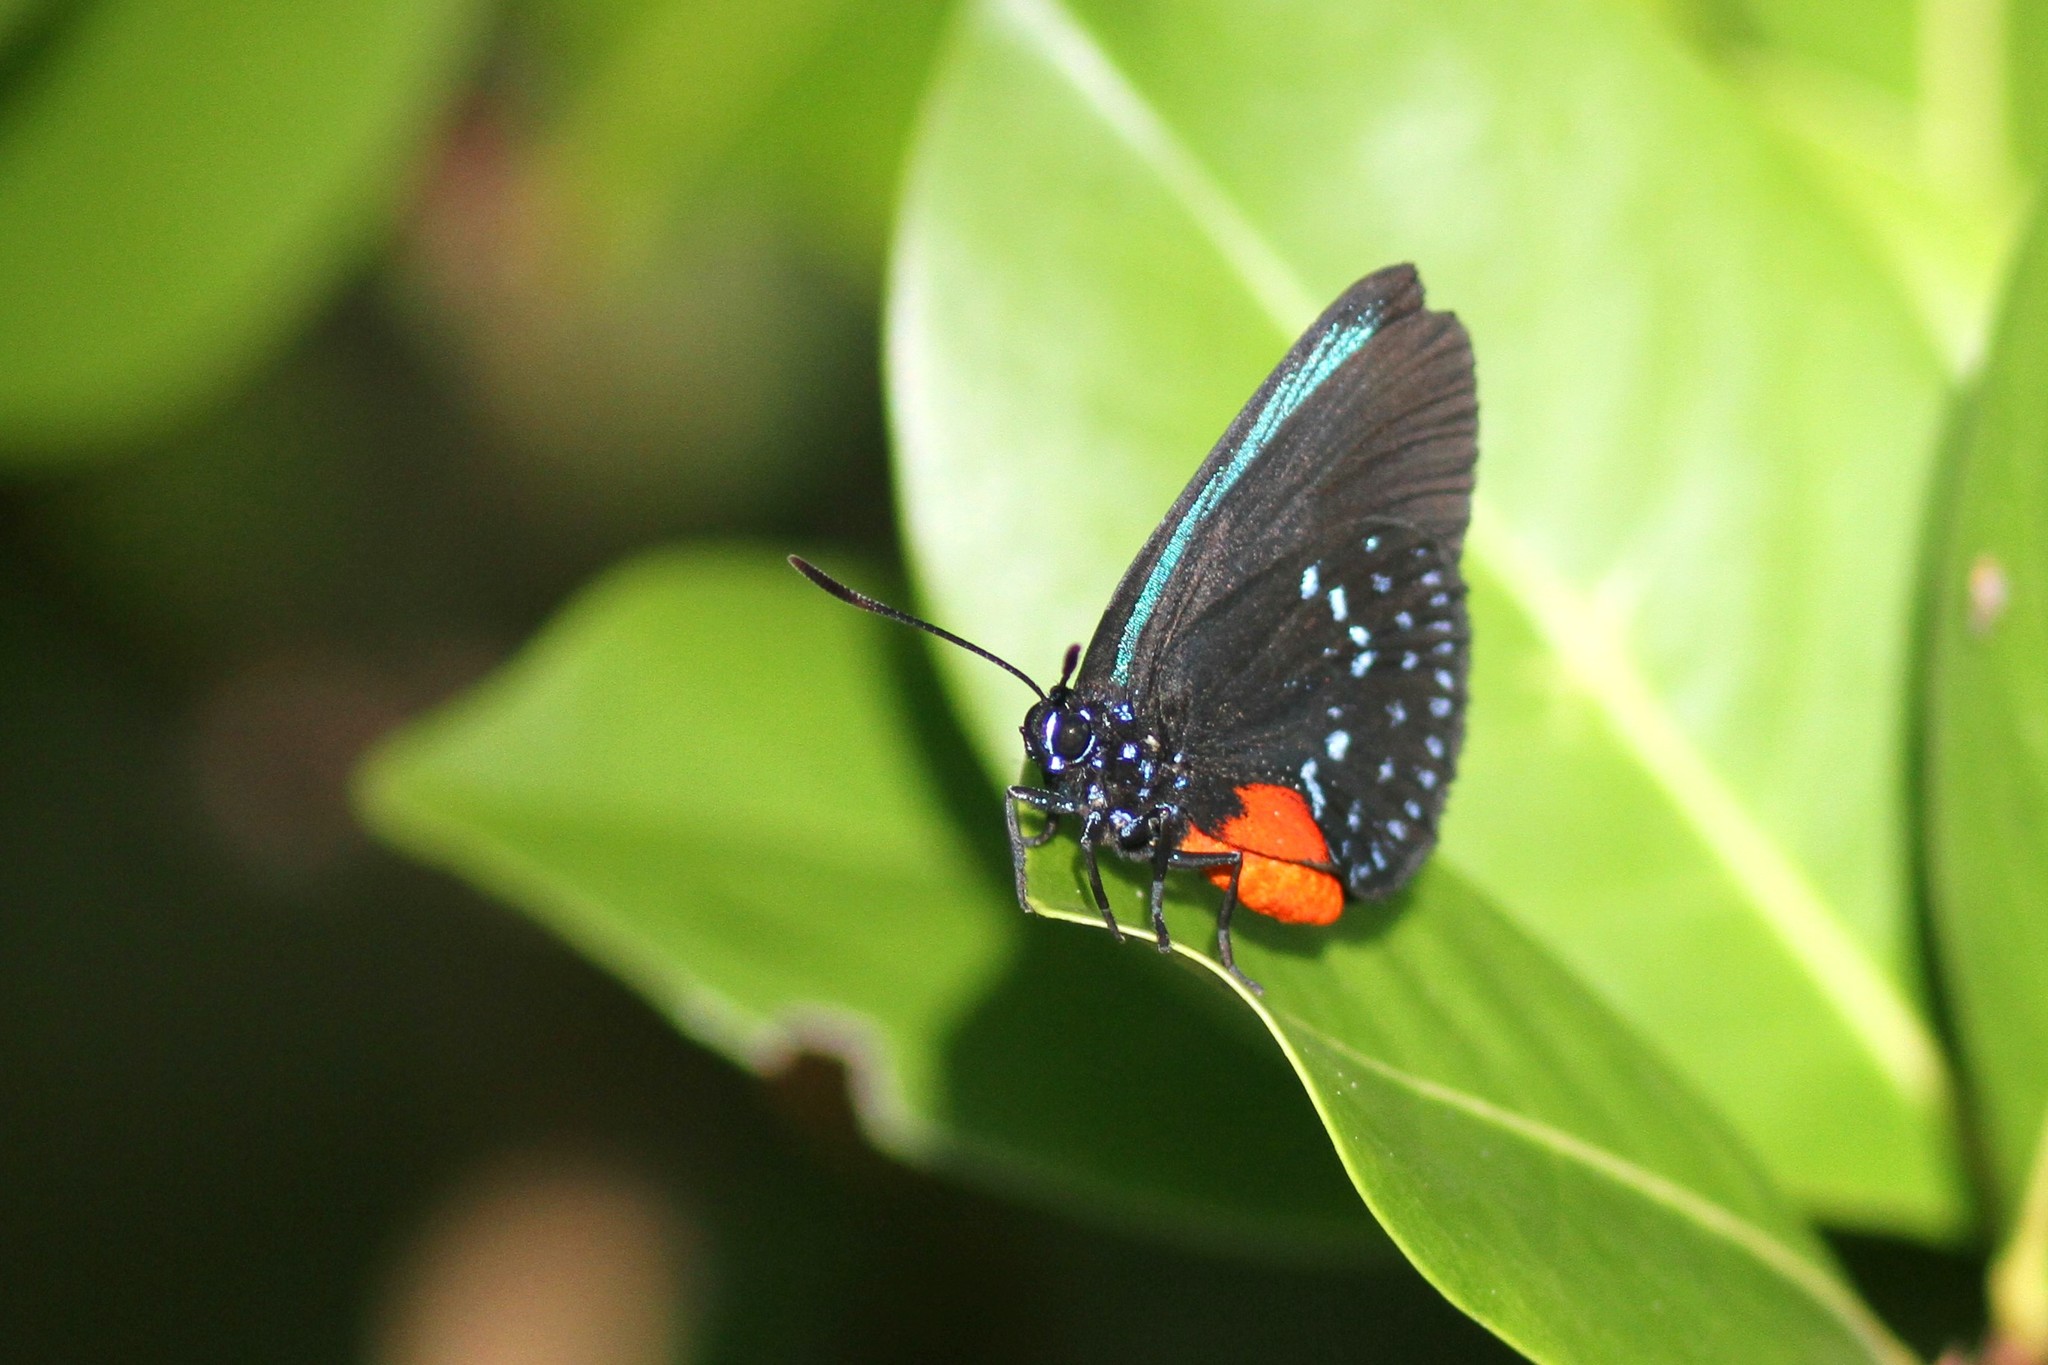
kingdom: Animalia
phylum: Arthropoda
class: Insecta
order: Lepidoptera
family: Lycaenidae
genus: Eumaeus
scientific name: Eumaeus atala
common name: Atala
